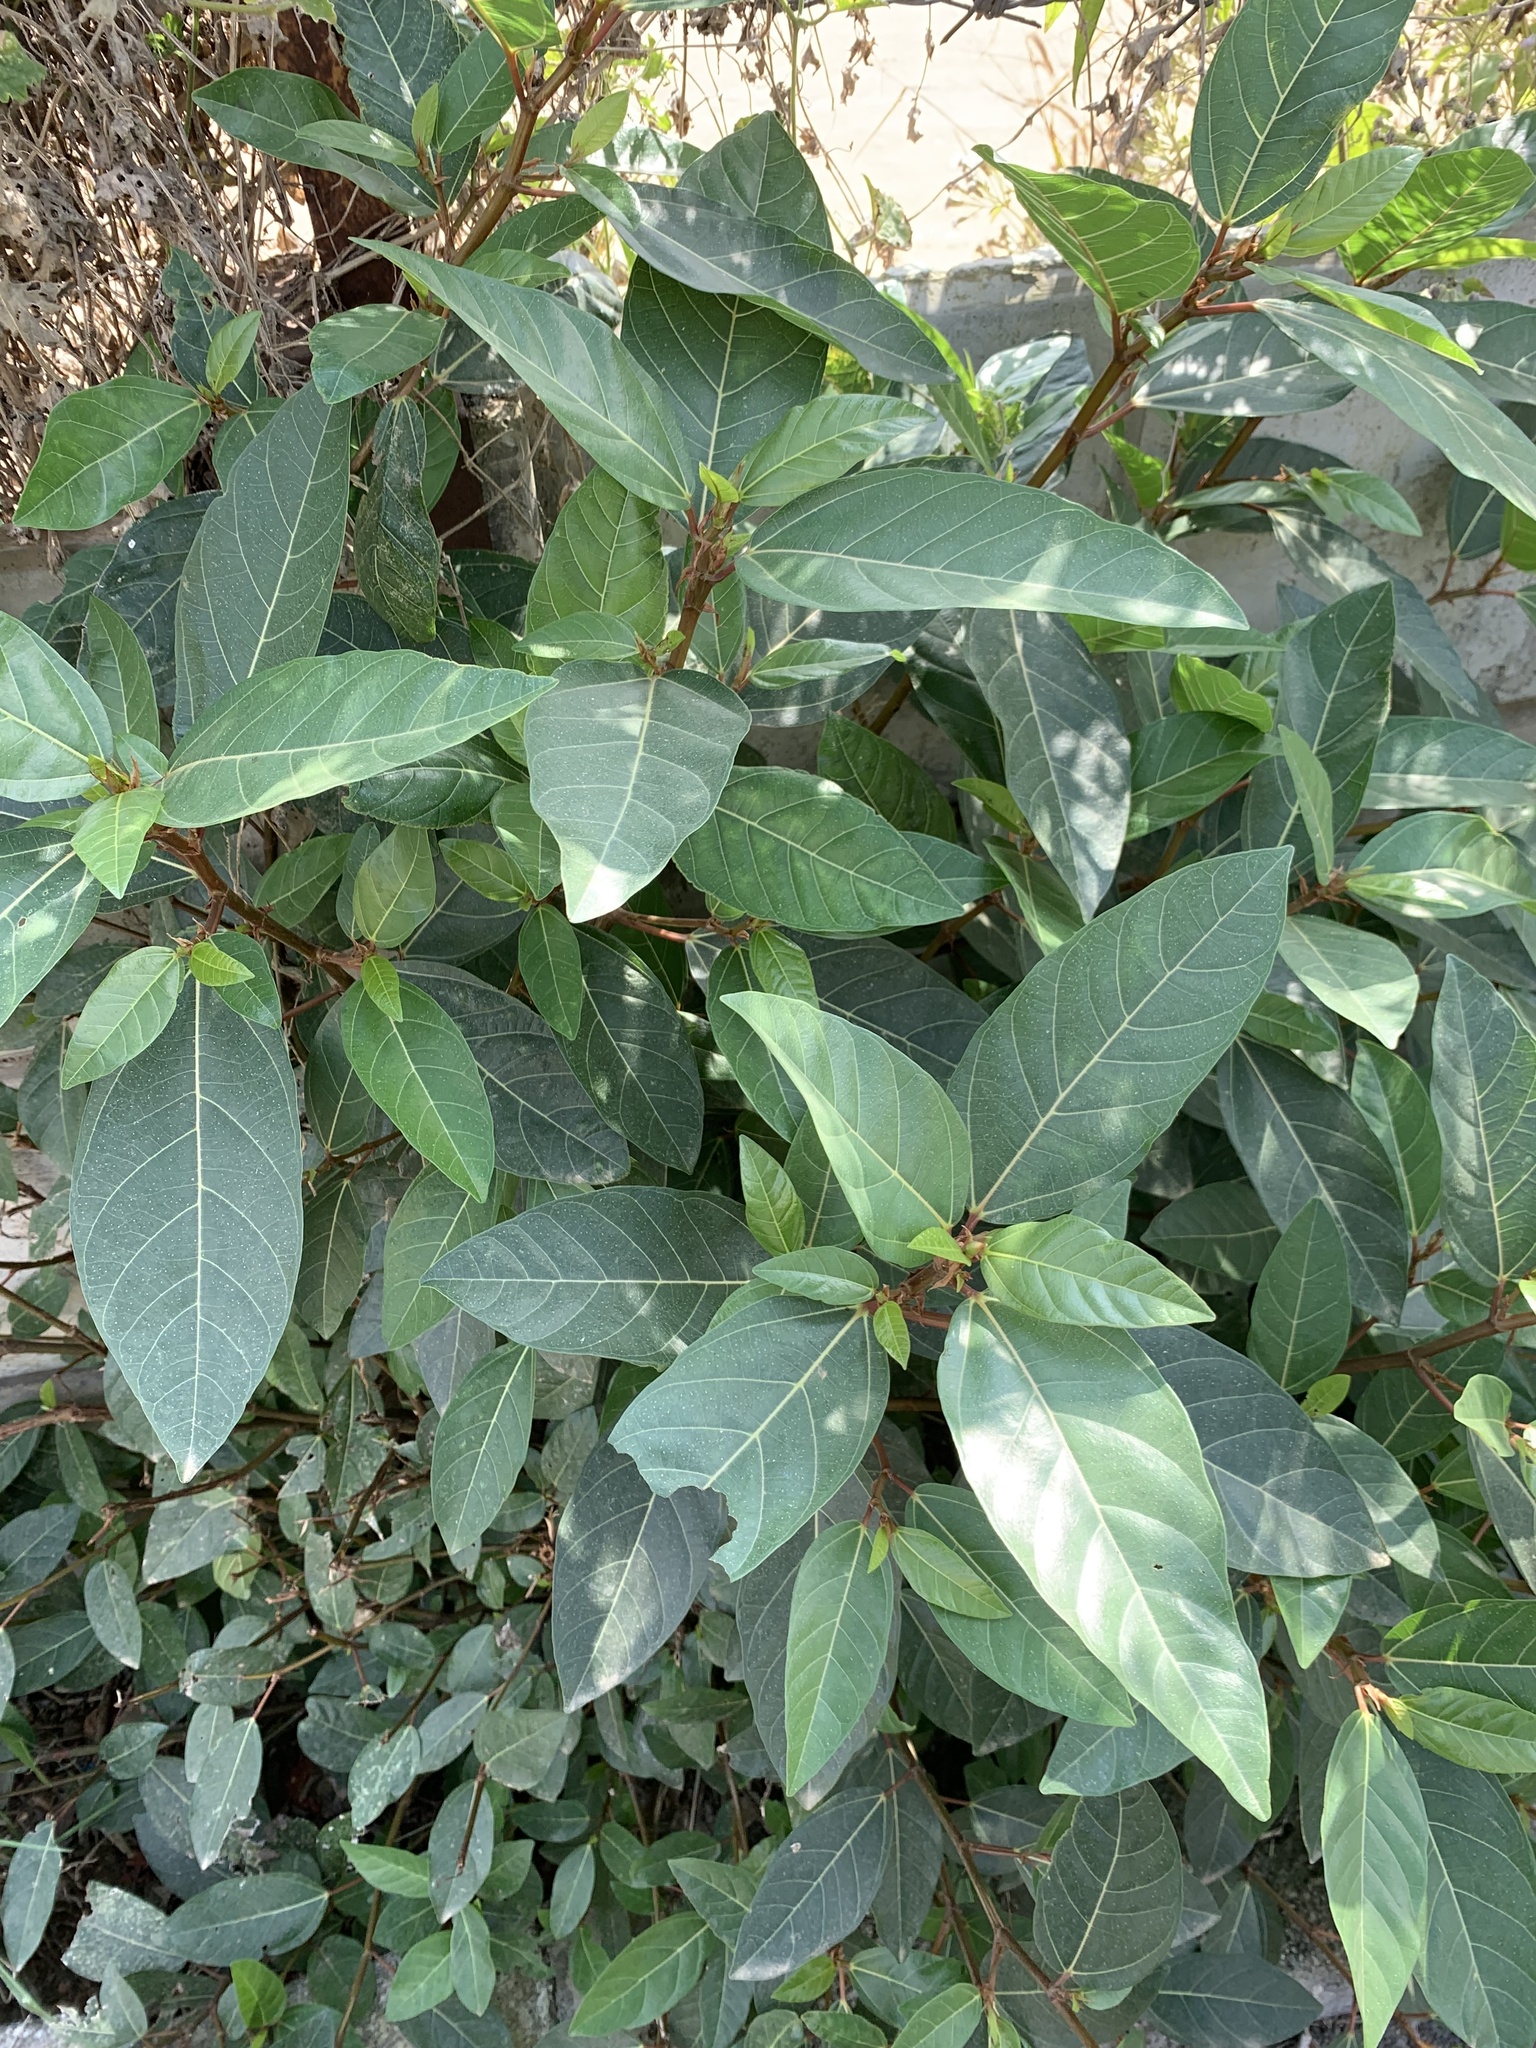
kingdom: Plantae
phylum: Tracheophyta
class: Magnoliopsida
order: Rosales
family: Moraceae
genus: Ficus
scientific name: Ficus racemosa
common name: Cluster fig
